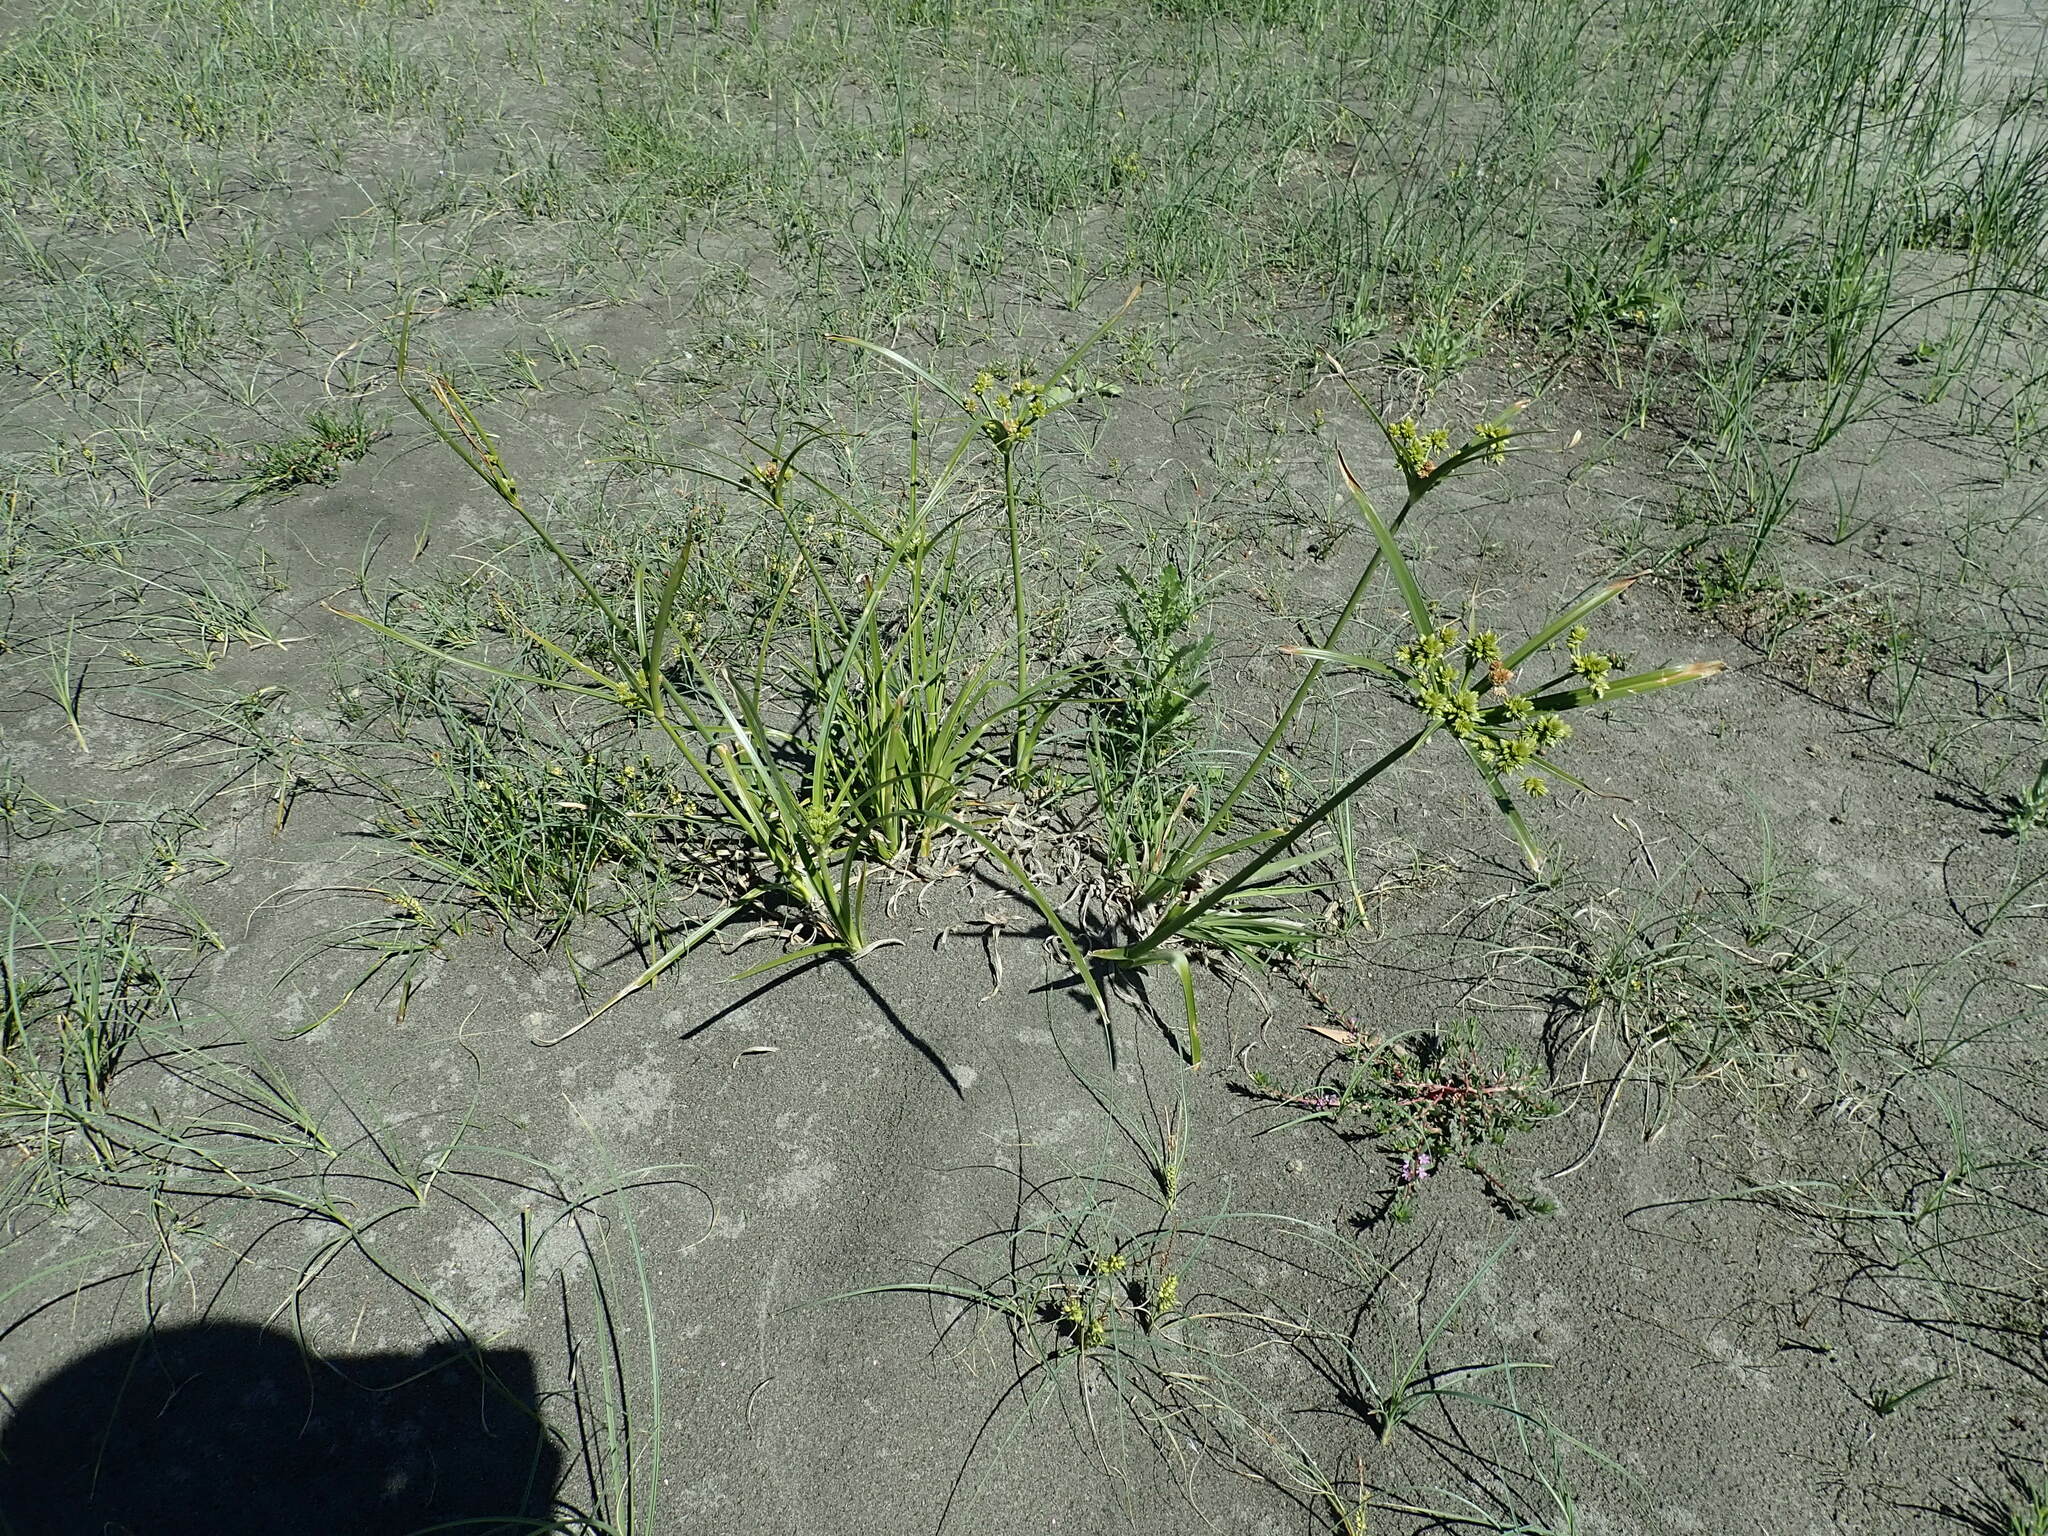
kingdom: Plantae
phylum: Tracheophyta
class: Liliopsida
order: Poales
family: Cyperaceae
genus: Cyperus
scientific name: Cyperus eragrostis
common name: Tall flatsedge
